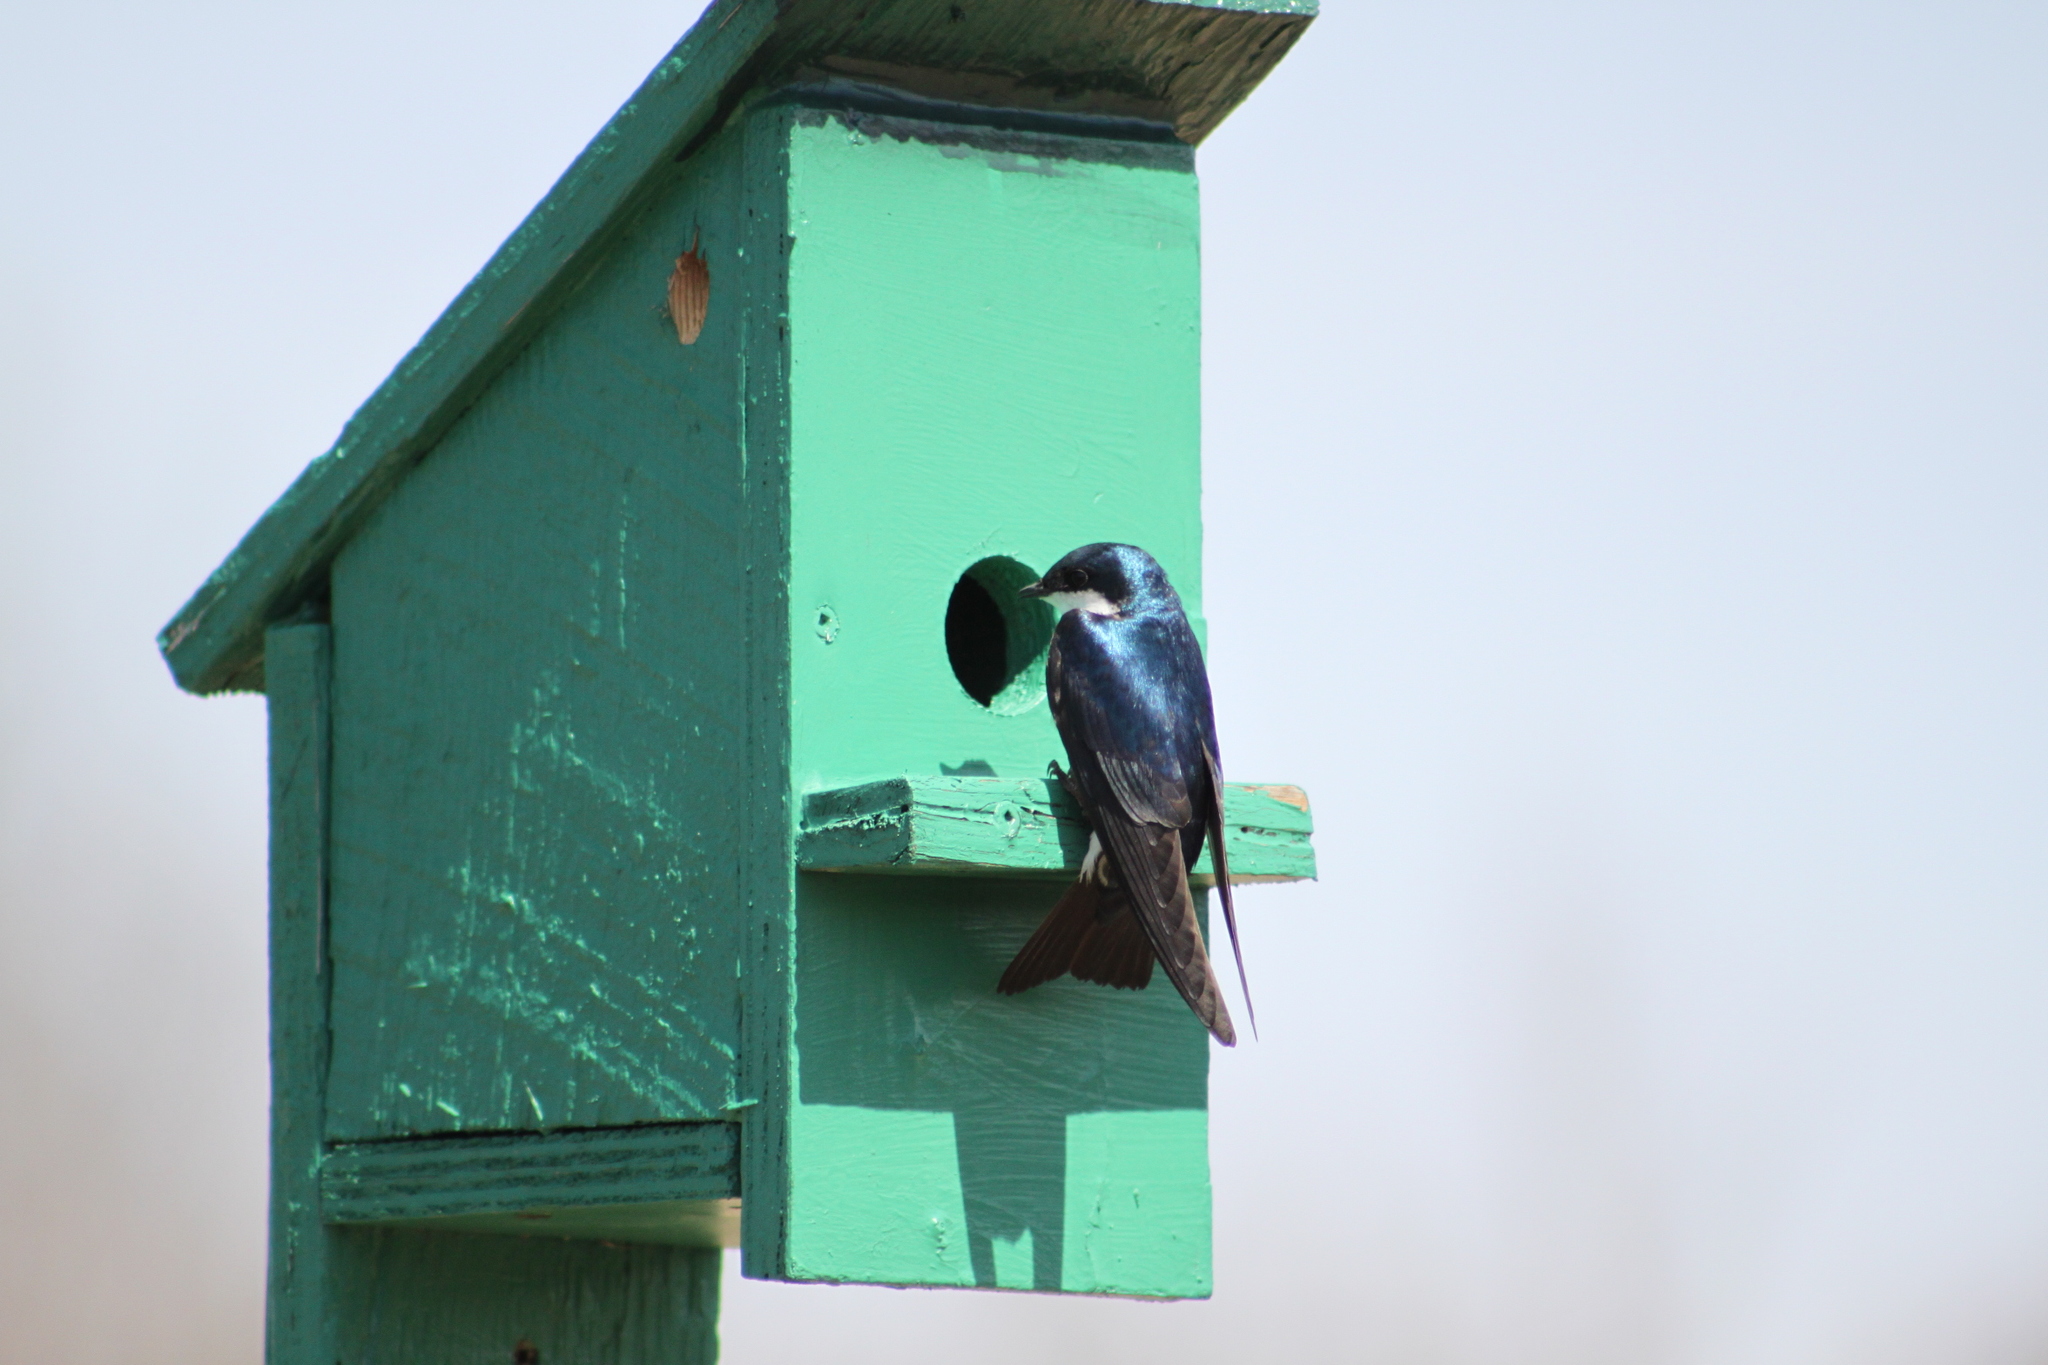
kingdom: Animalia
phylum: Chordata
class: Aves
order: Passeriformes
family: Hirundinidae
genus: Tachycineta
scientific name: Tachycineta bicolor
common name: Tree swallow
